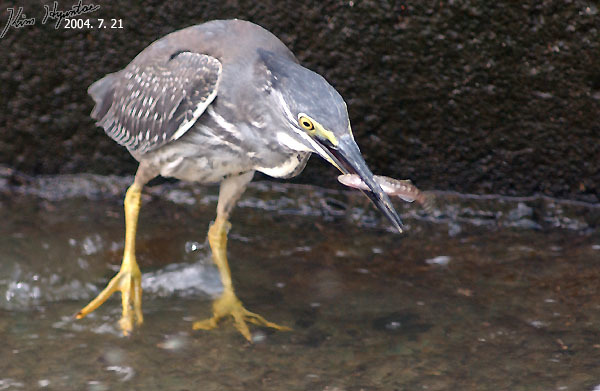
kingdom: Animalia
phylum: Chordata
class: Aves
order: Pelecaniformes
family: Ardeidae
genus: Butorides
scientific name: Butorides striata
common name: Striated heron
